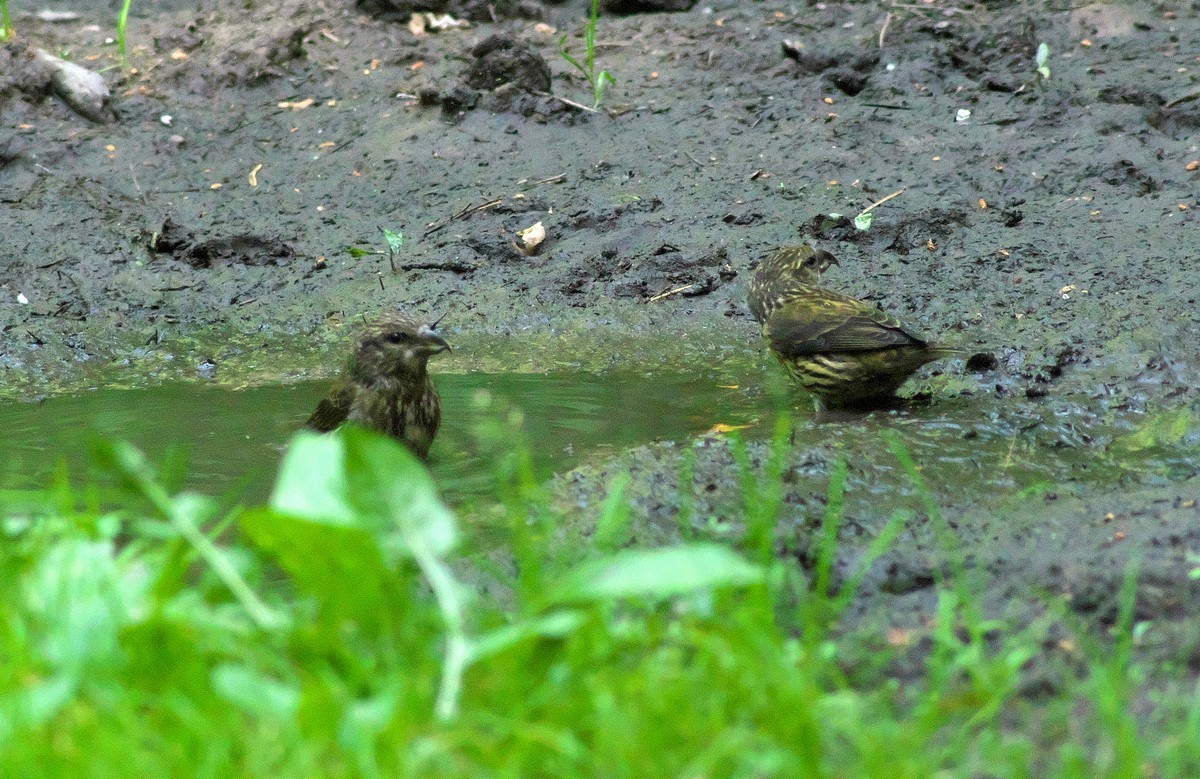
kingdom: Animalia
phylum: Chordata
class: Aves
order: Passeriformes
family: Fringillidae
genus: Loxia
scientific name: Loxia curvirostra
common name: Red crossbill
